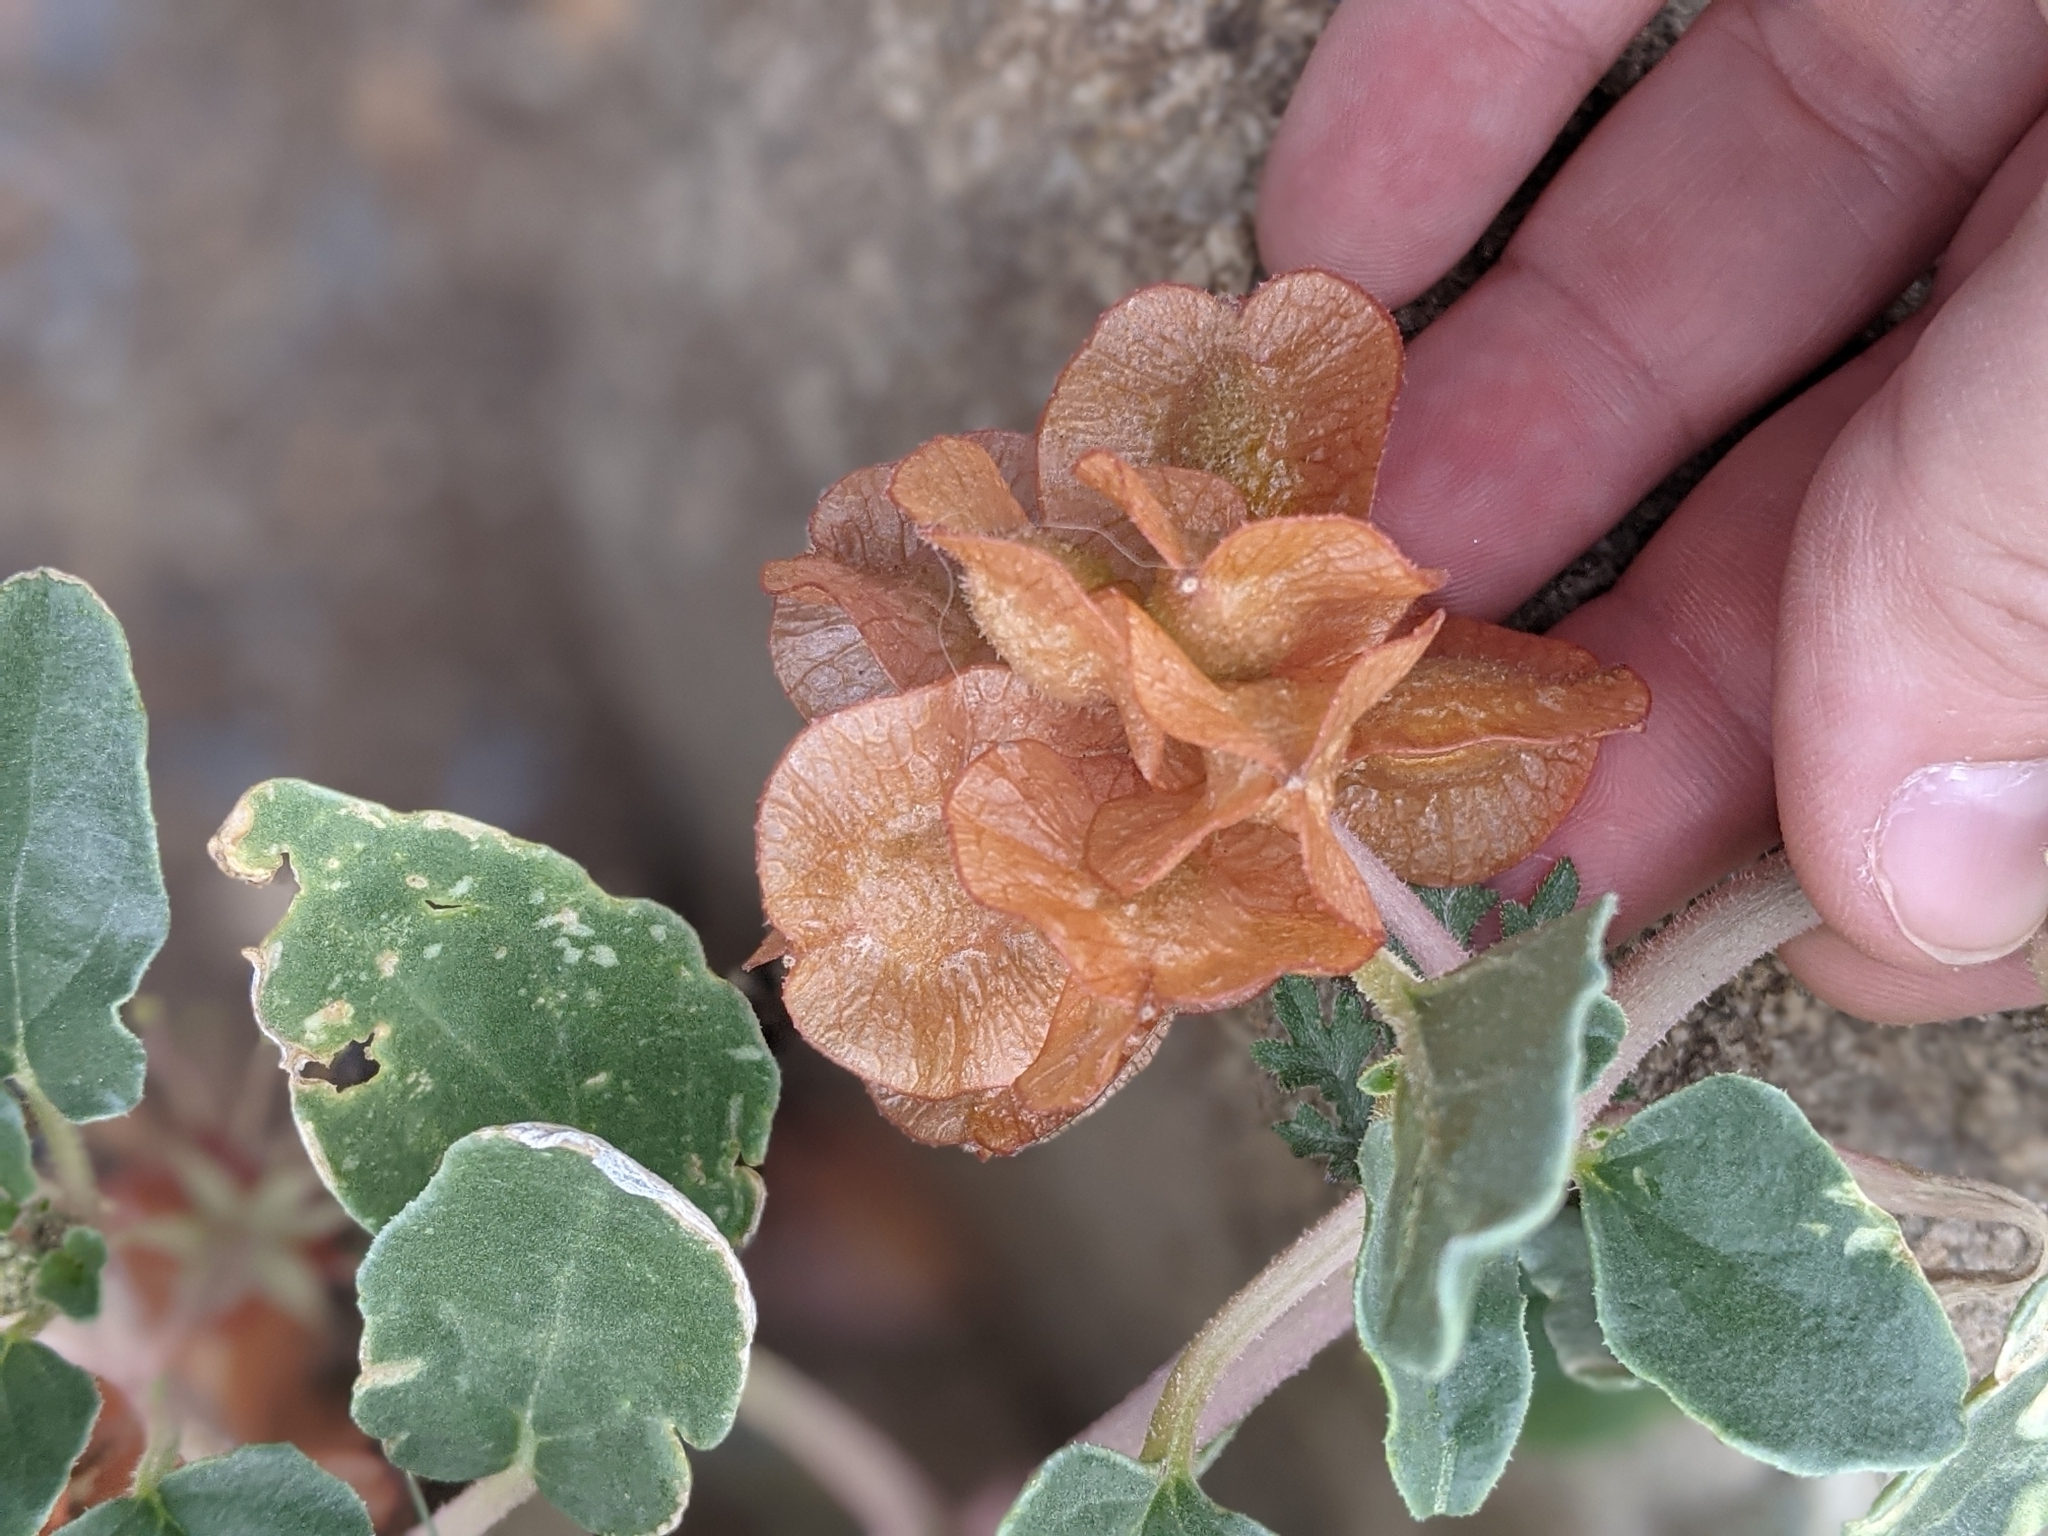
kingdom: Plantae
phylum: Tracheophyta
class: Magnoliopsida
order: Caryophyllales
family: Nyctaginaceae
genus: Tripterocalyx
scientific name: Tripterocalyx micranthus
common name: Small-flowered sand-verbena
